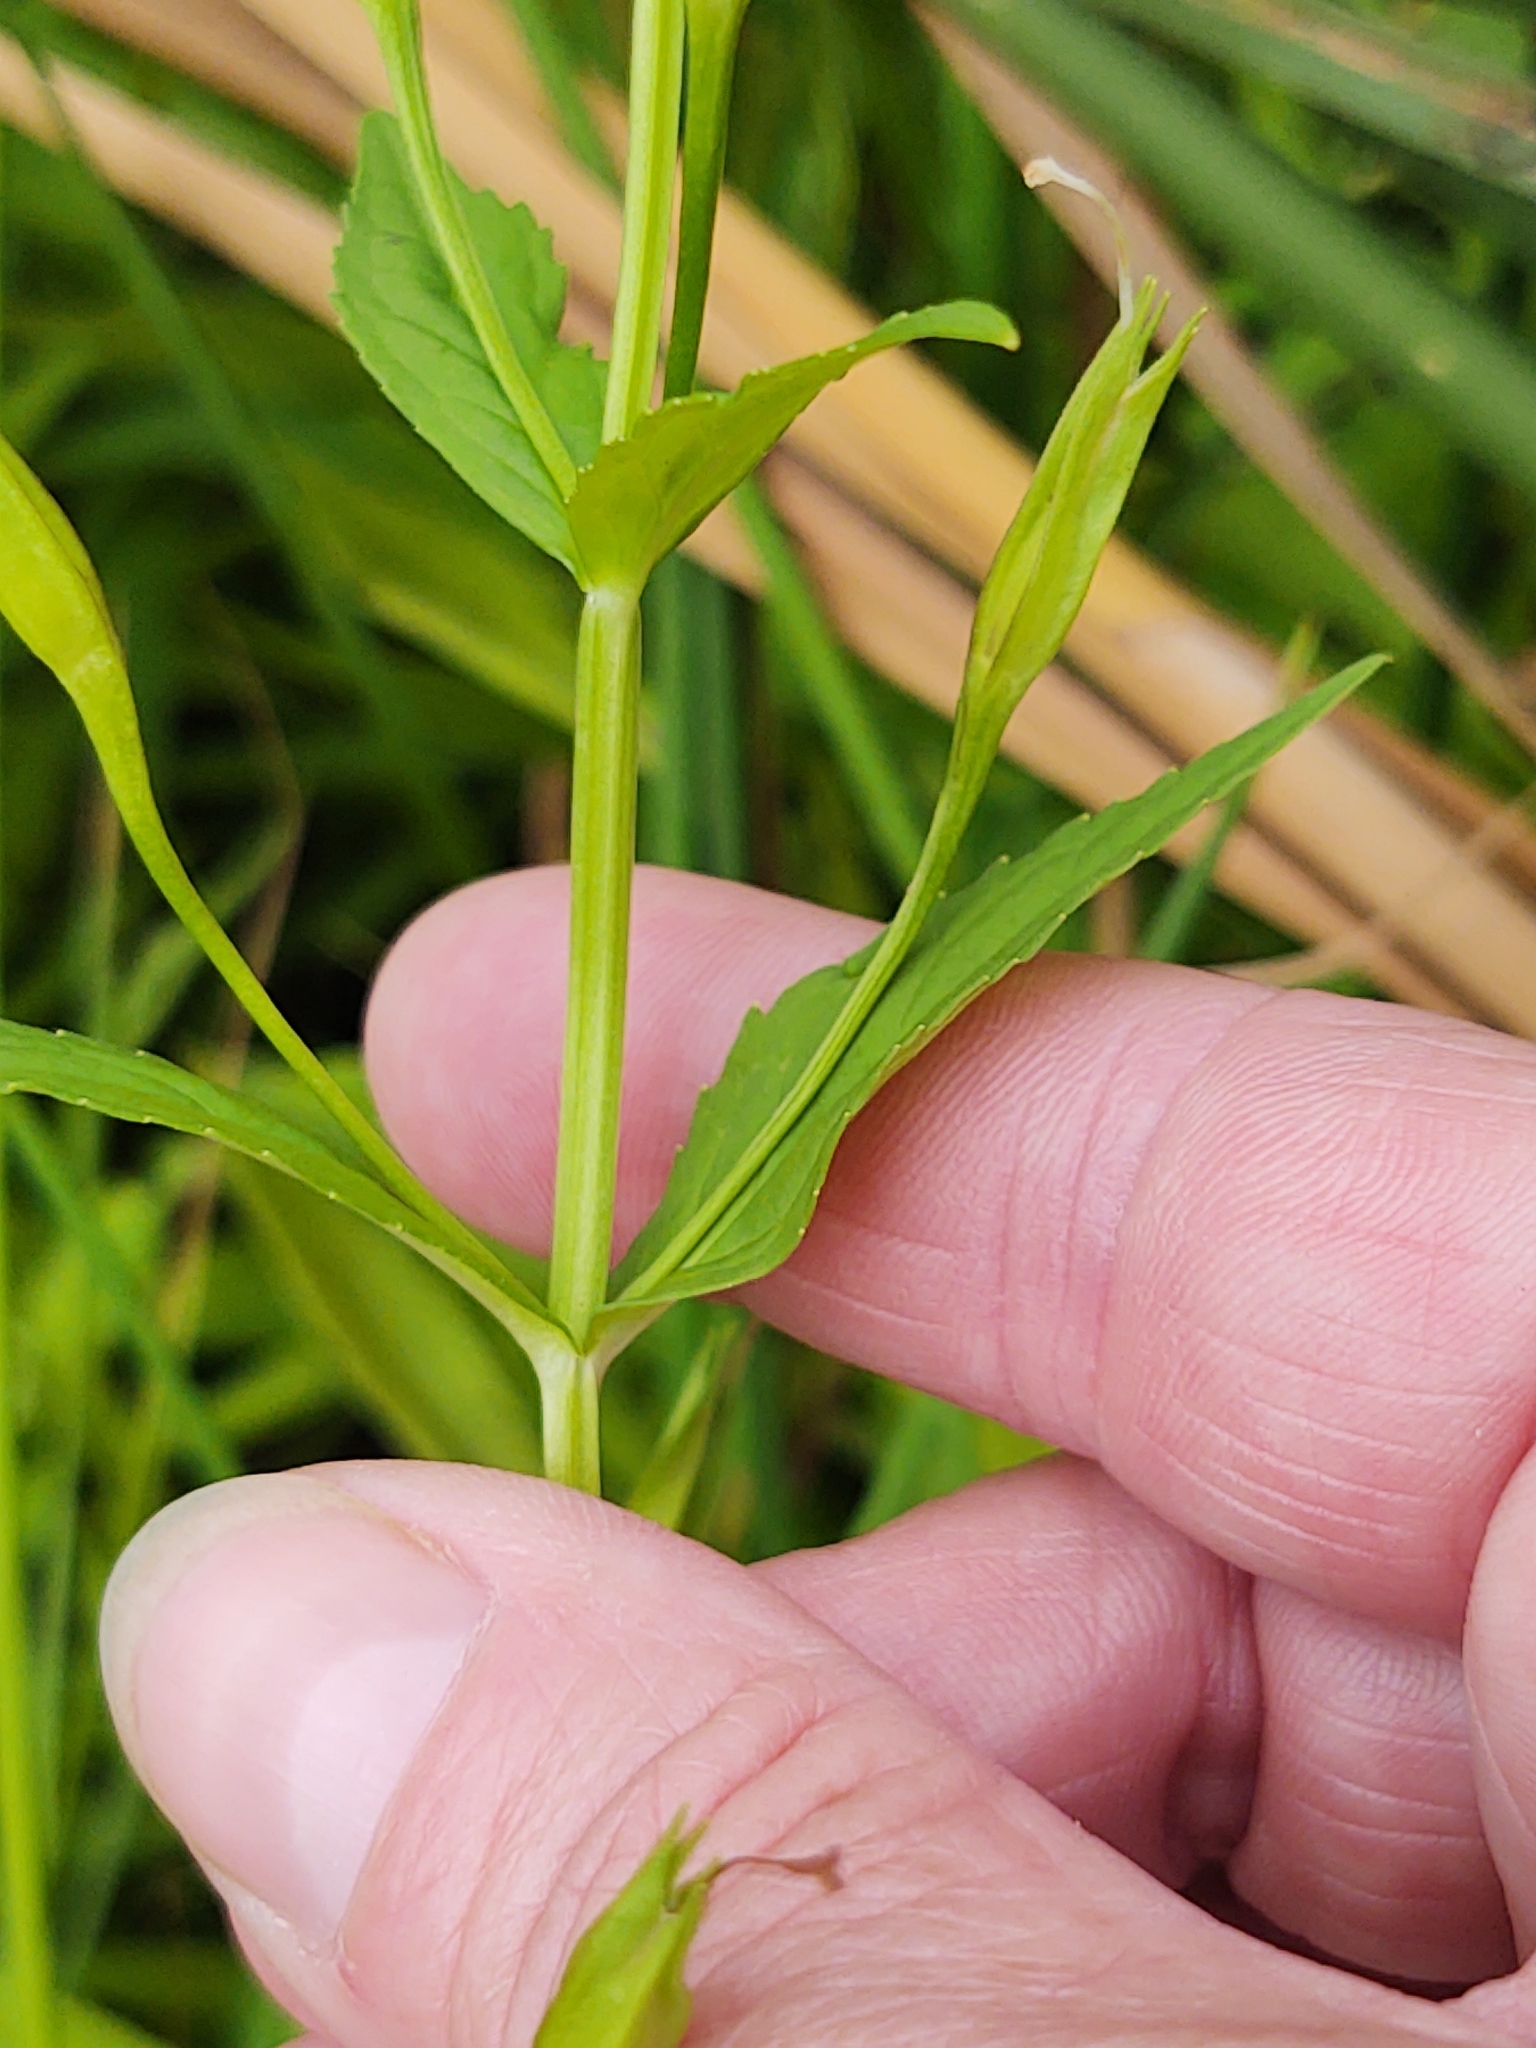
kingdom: Plantae
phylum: Tracheophyta
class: Magnoliopsida
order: Lamiales
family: Phrymaceae
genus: Mimulus
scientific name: Mimulus ringens
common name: Allegheny monkeyflower
